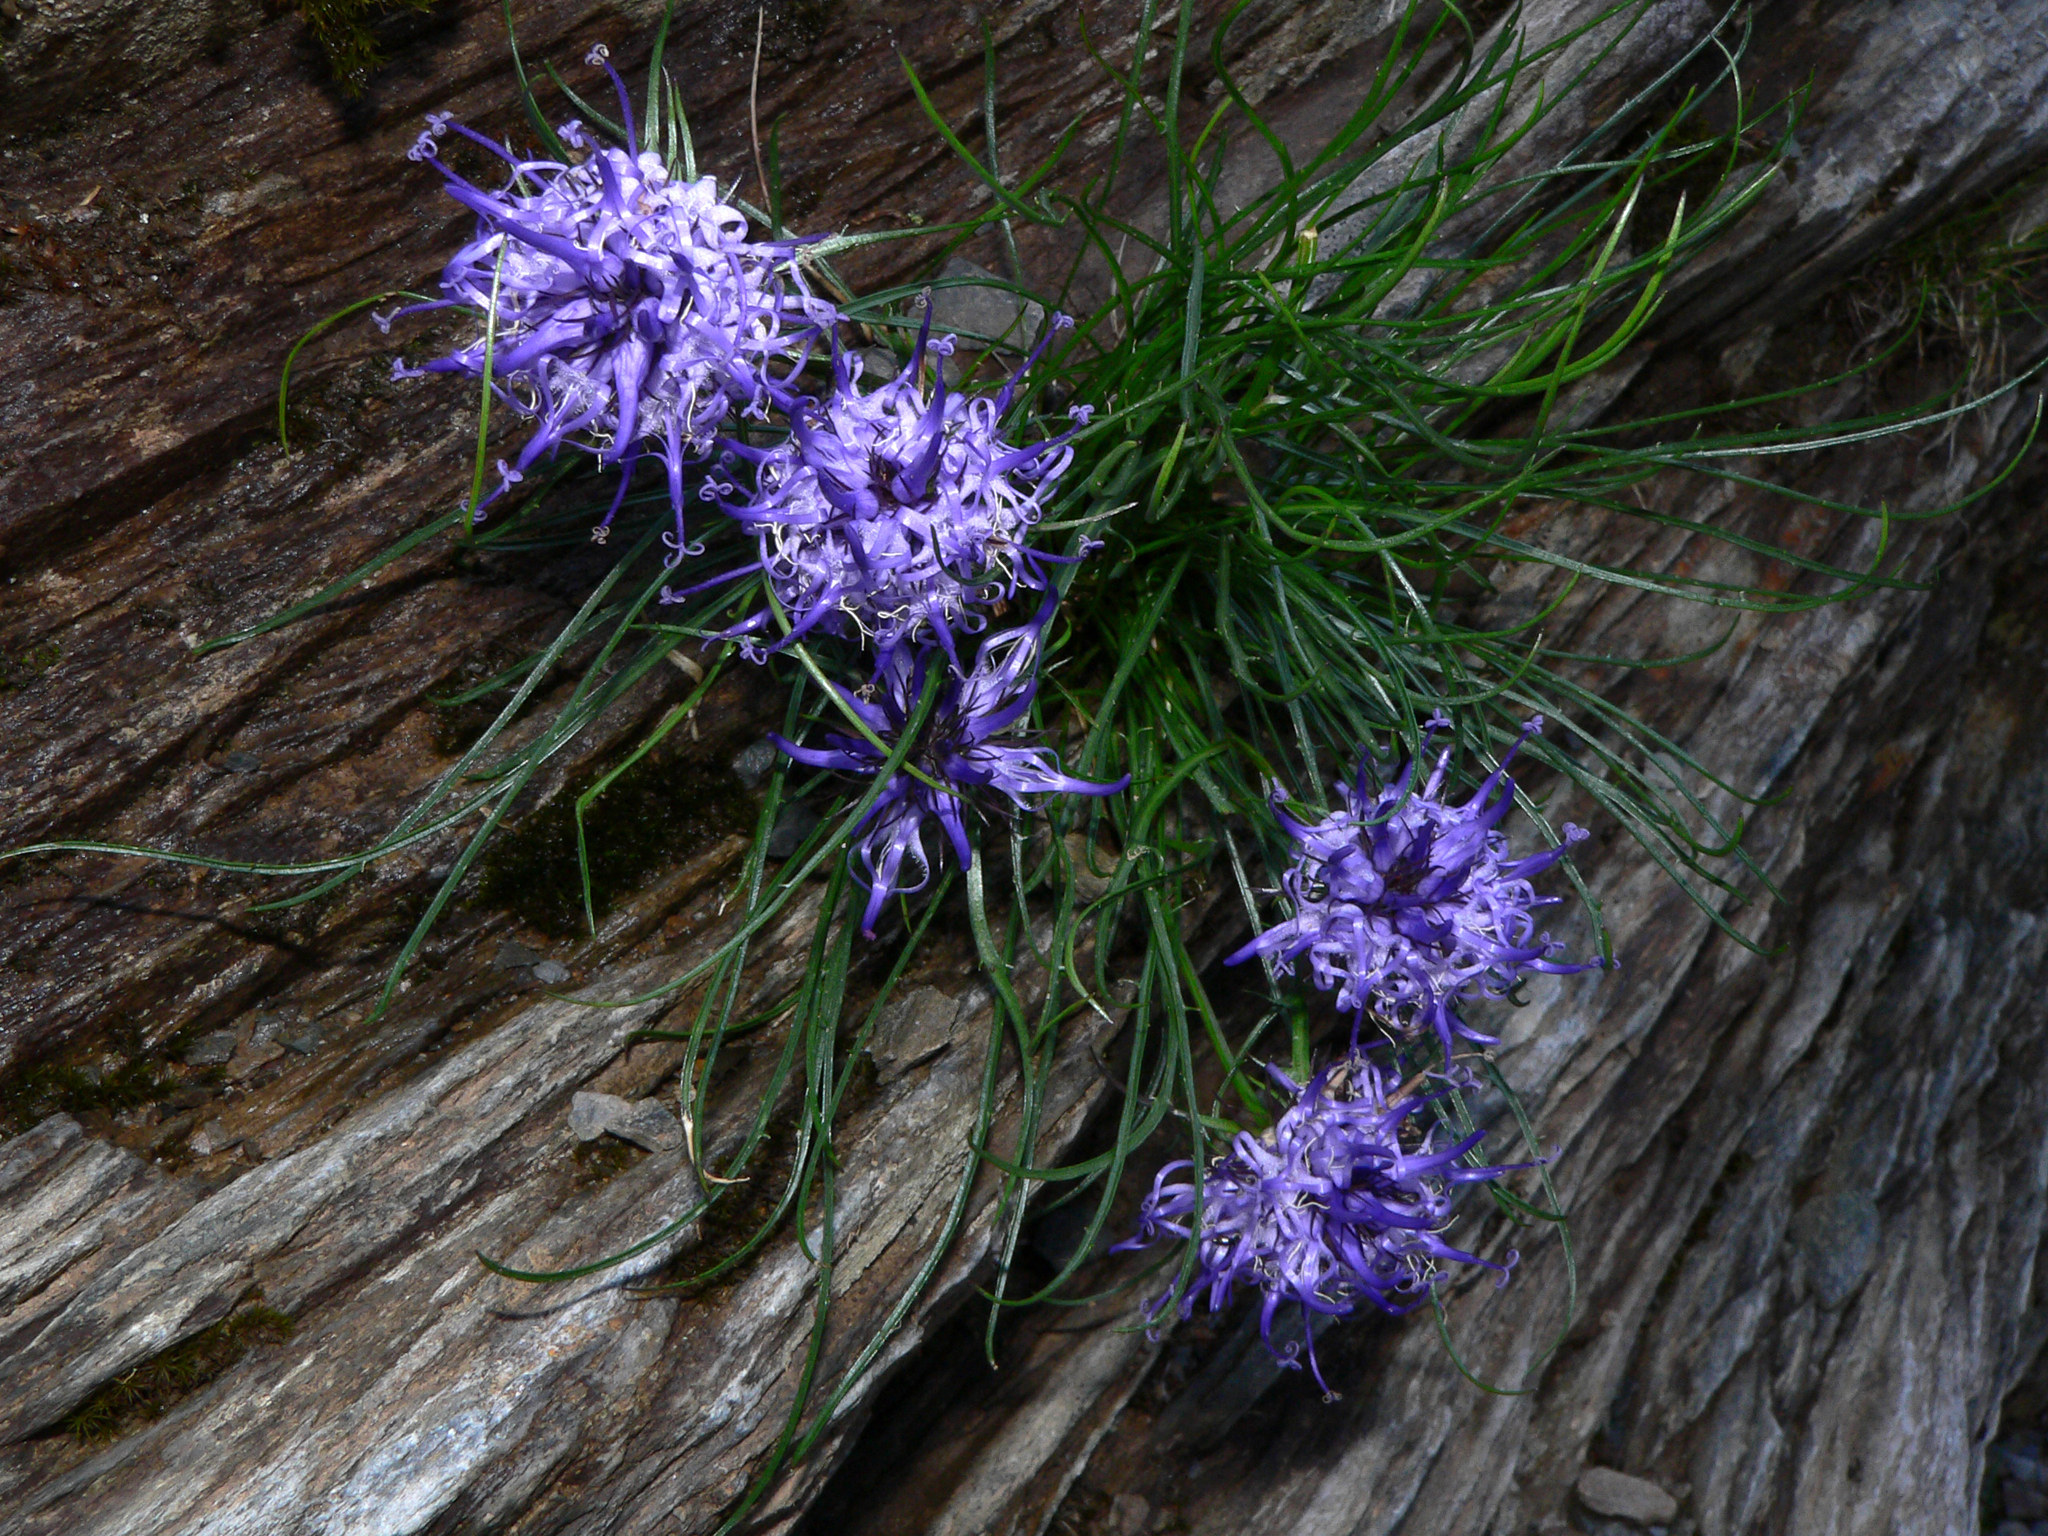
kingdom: Plantae
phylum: Tracheophyta
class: Magnoliopsida
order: Asterales
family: Campanulaceae
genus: Phyteuma
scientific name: Phyteuma hedraianthifolium
